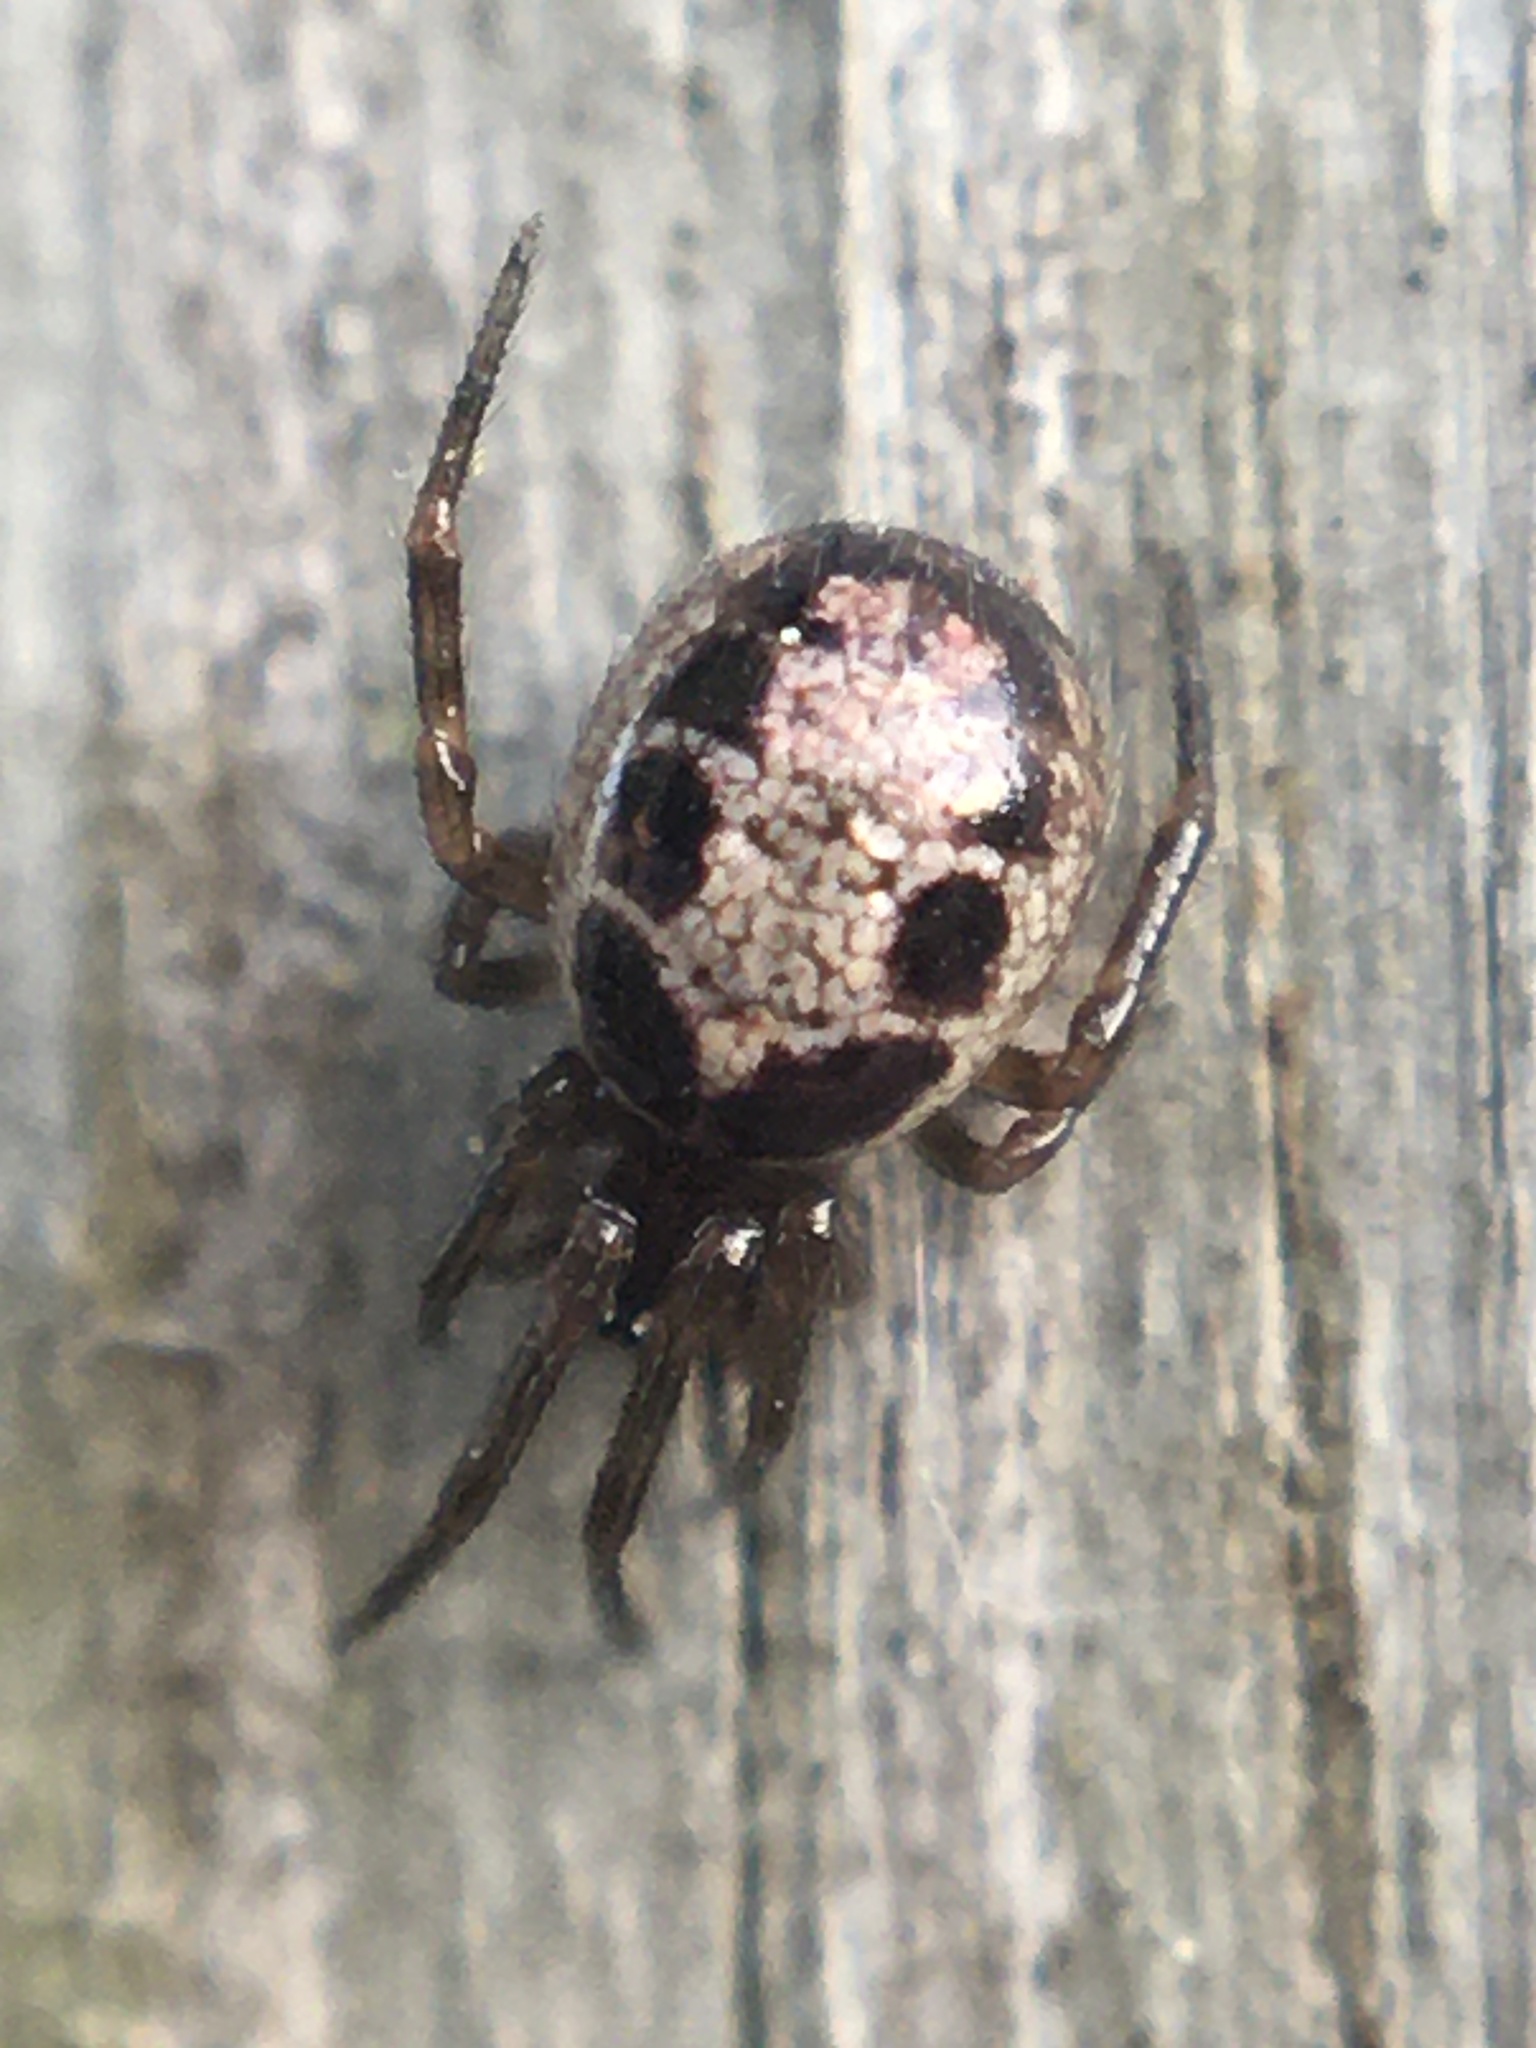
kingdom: Animalia
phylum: Arthropoda
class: Arachnida
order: Araneae
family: Theridiidae
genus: Steatoda
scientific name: Steatoda nobilis
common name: Cobweb weaver
